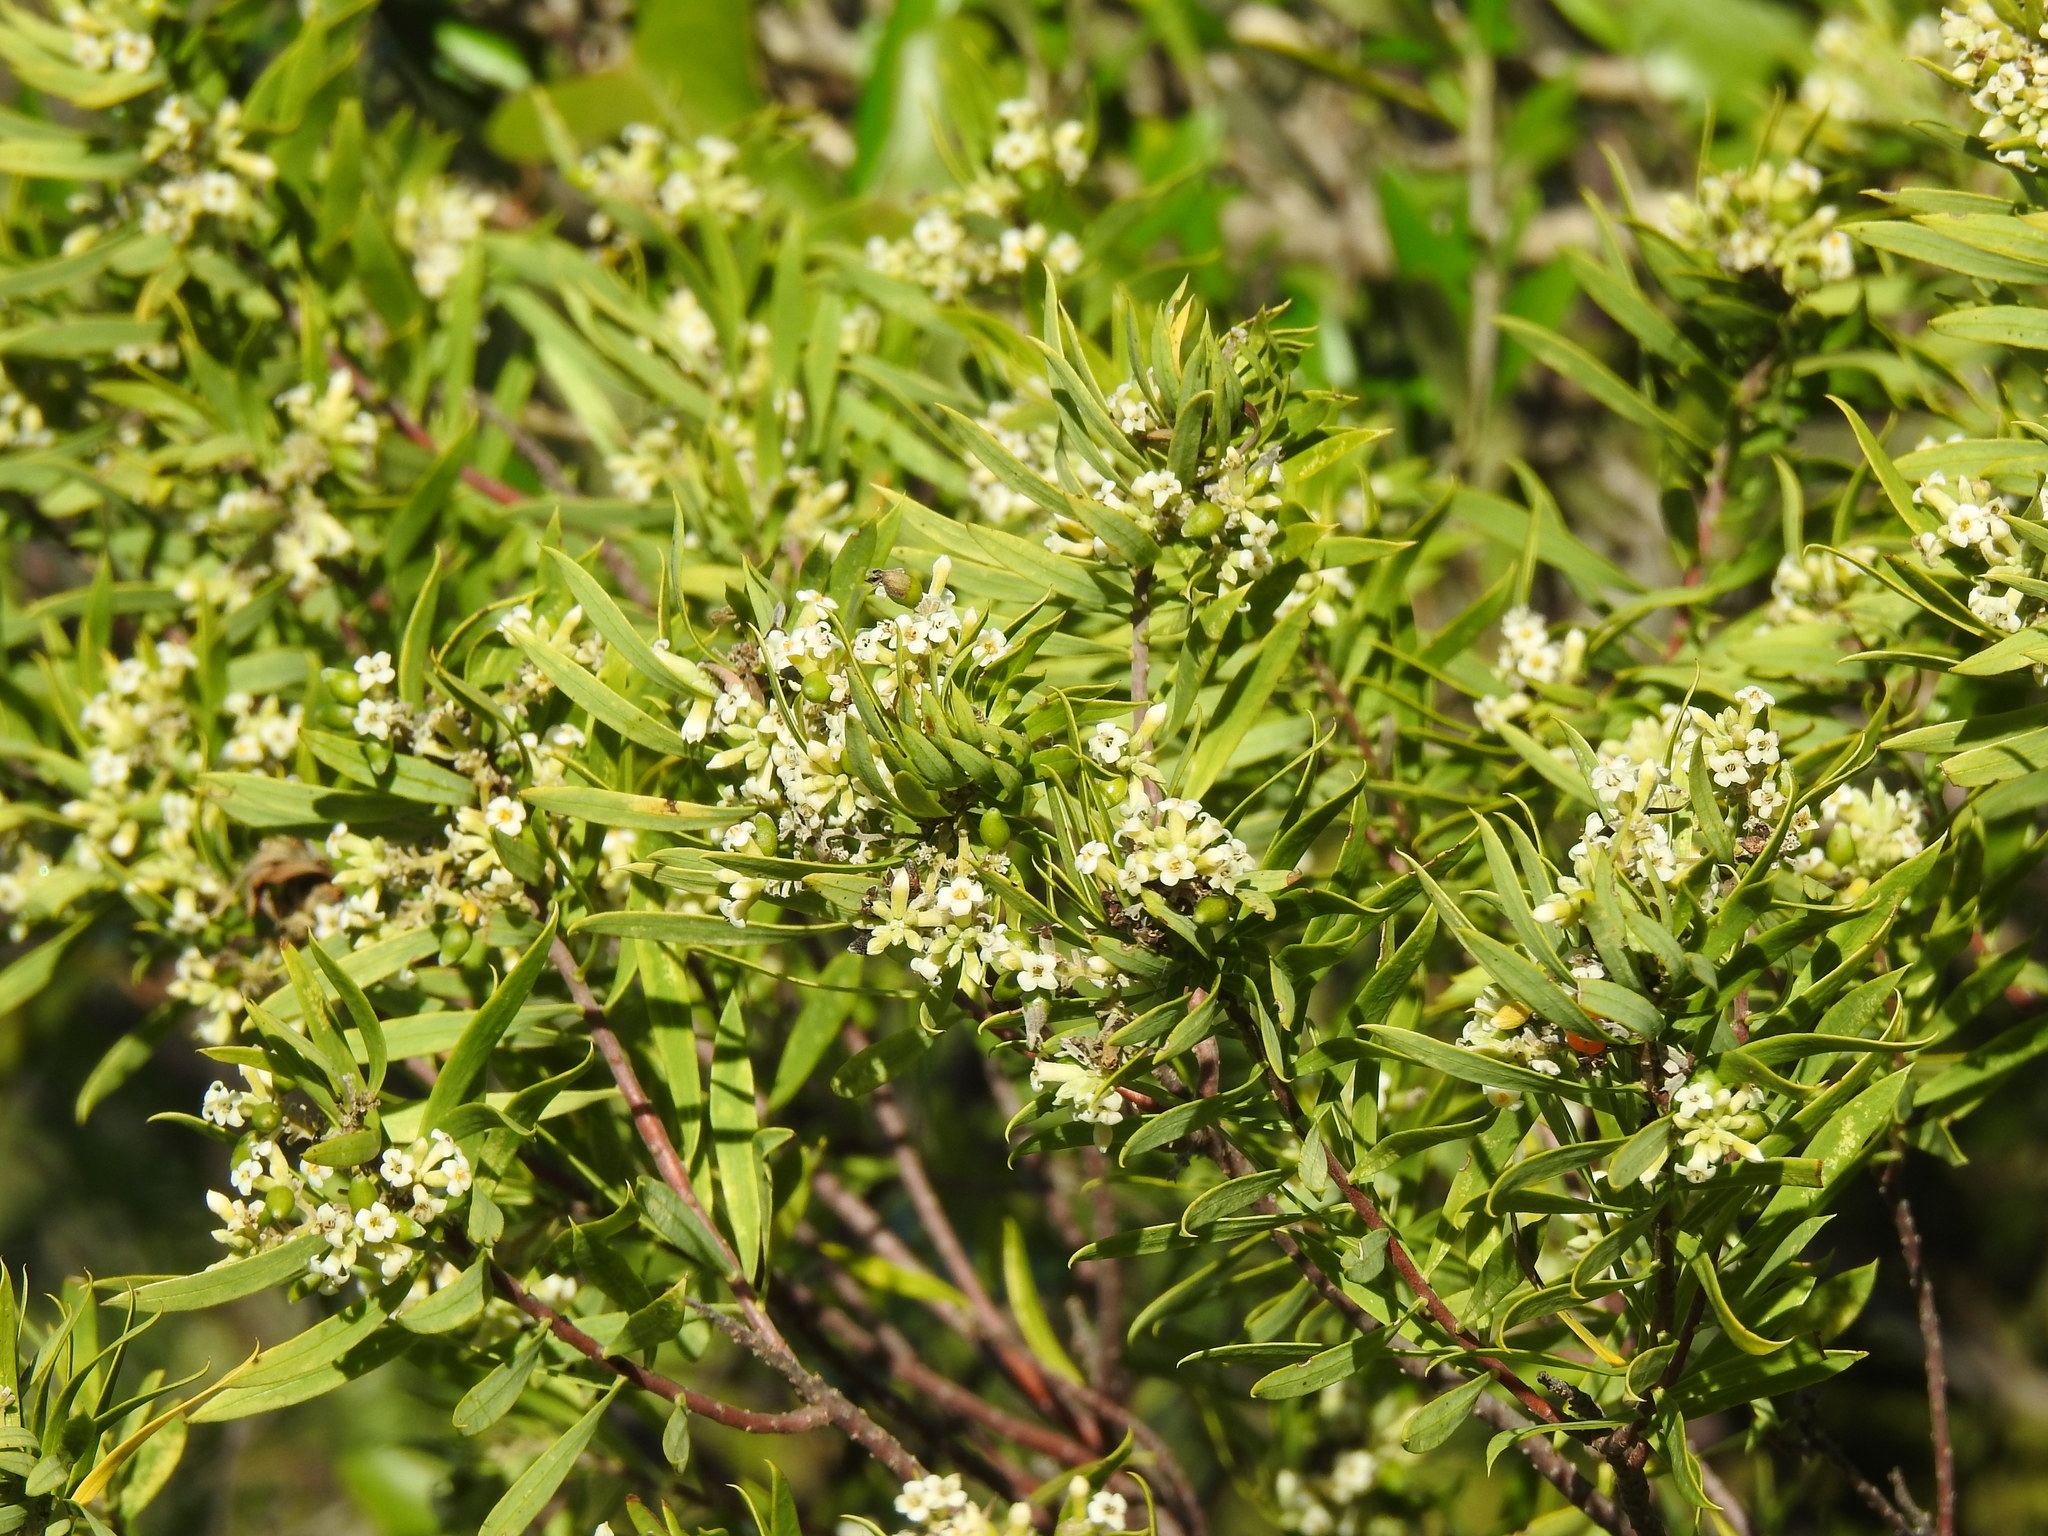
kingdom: Plantae
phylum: Tracheophyta
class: Magnoliopsida
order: Malvales
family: Thymelaeaceae
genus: Daphne
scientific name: Daphne gnidium
